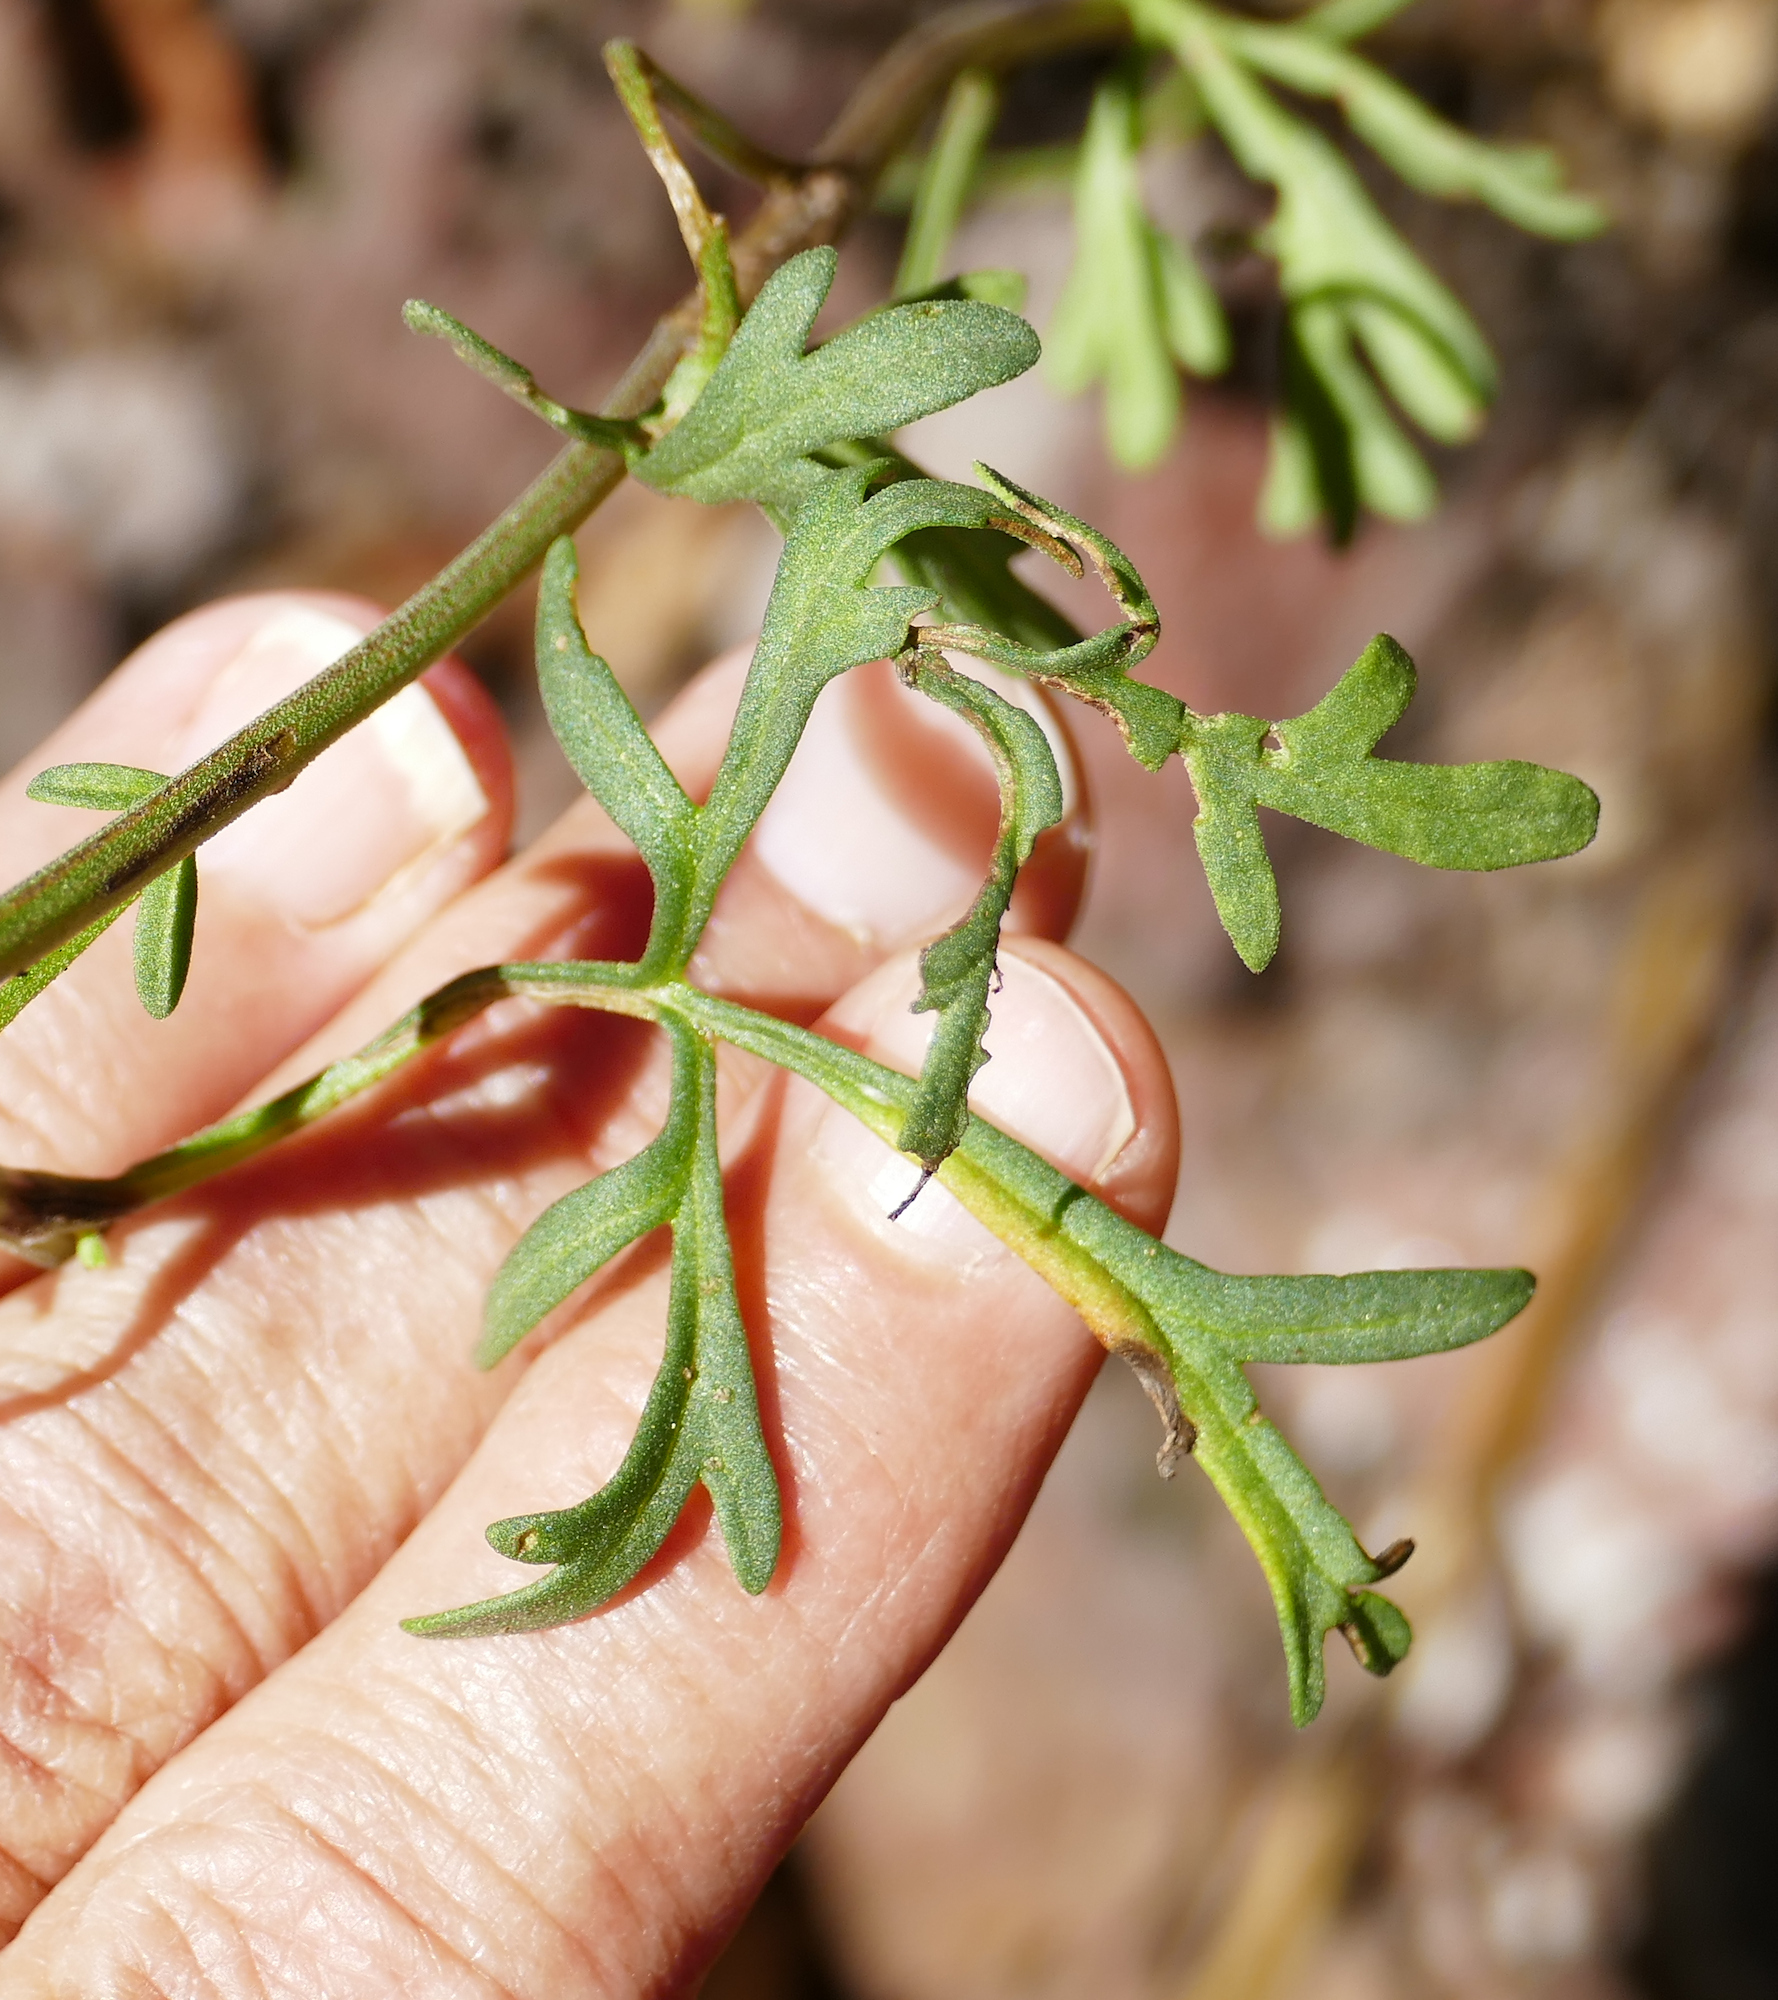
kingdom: Plantae
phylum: Tracheophyta
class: Magnoliopsida
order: Asterales
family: Asteraceae
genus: Hymenothrix
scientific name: Hymenothrix dissecta
